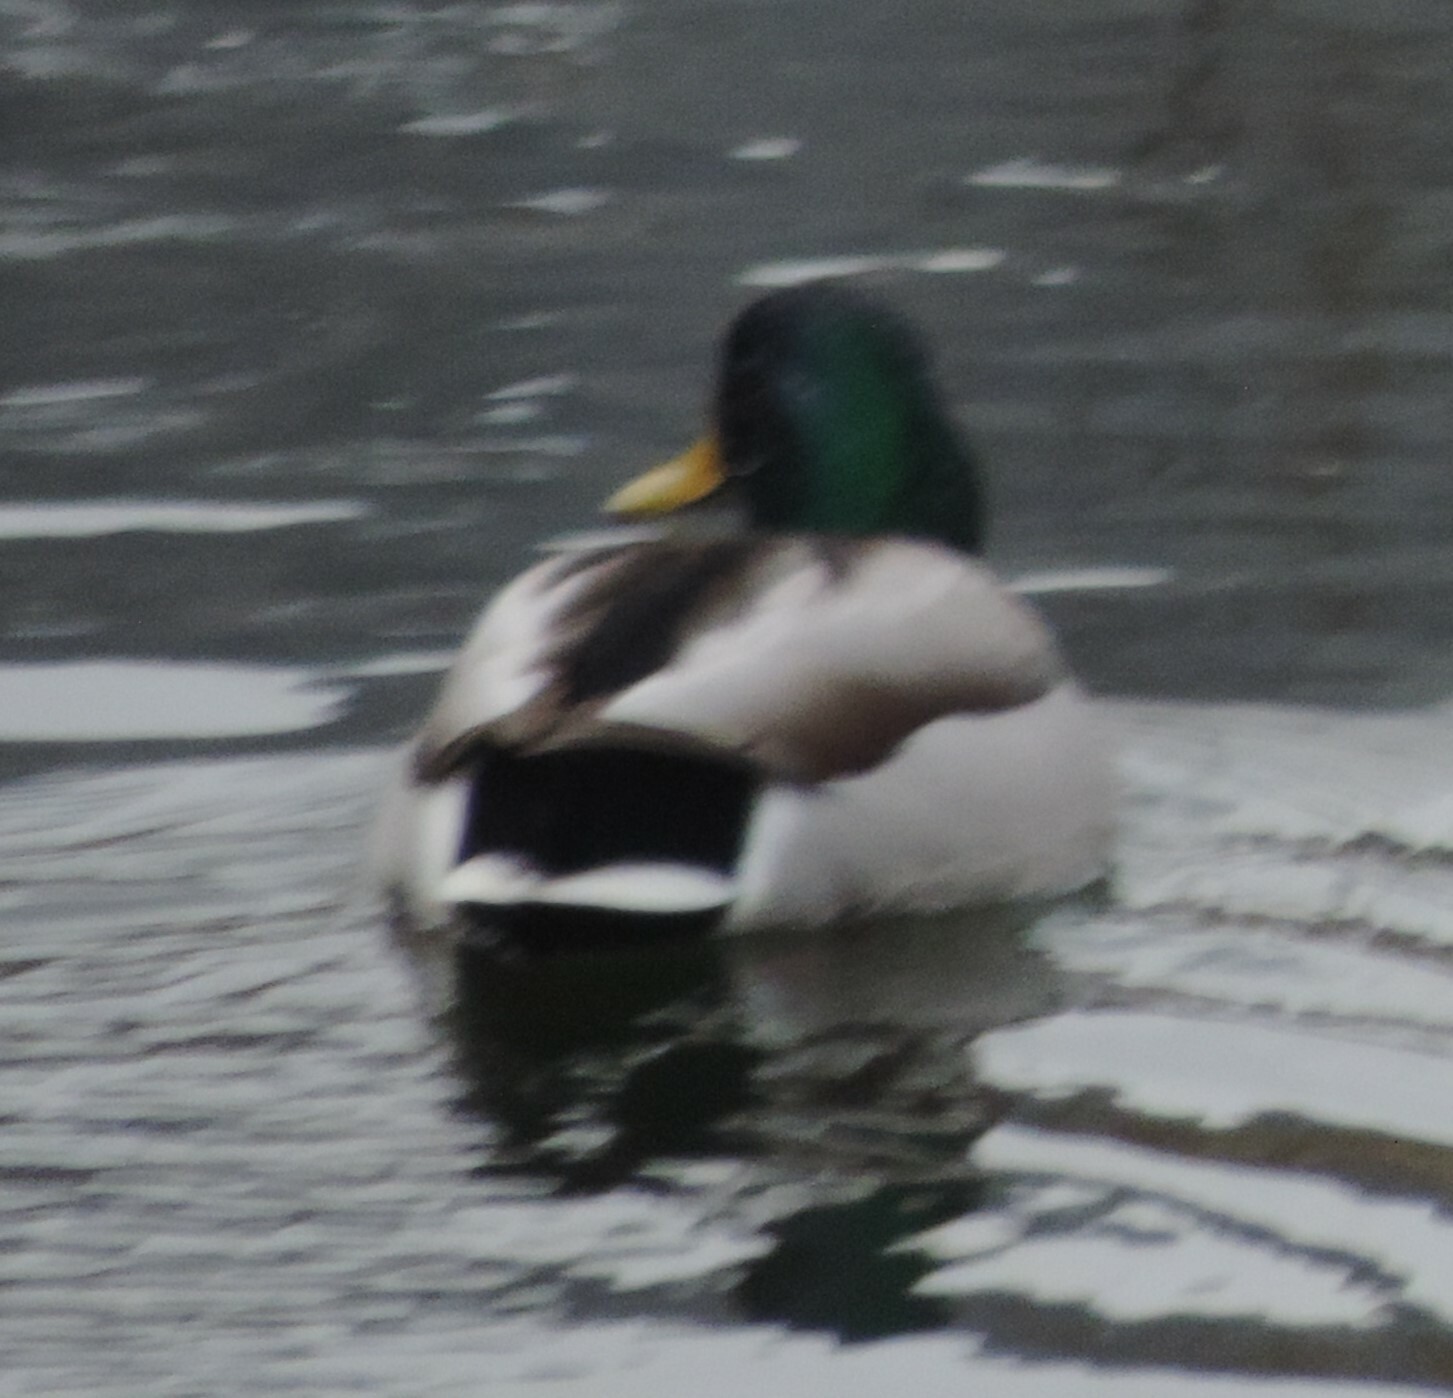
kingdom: Animalia
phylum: Chordata
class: Aves
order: Anseriformes
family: Anatidae
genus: Anas
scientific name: Anas platyrhynchos
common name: Mallard
